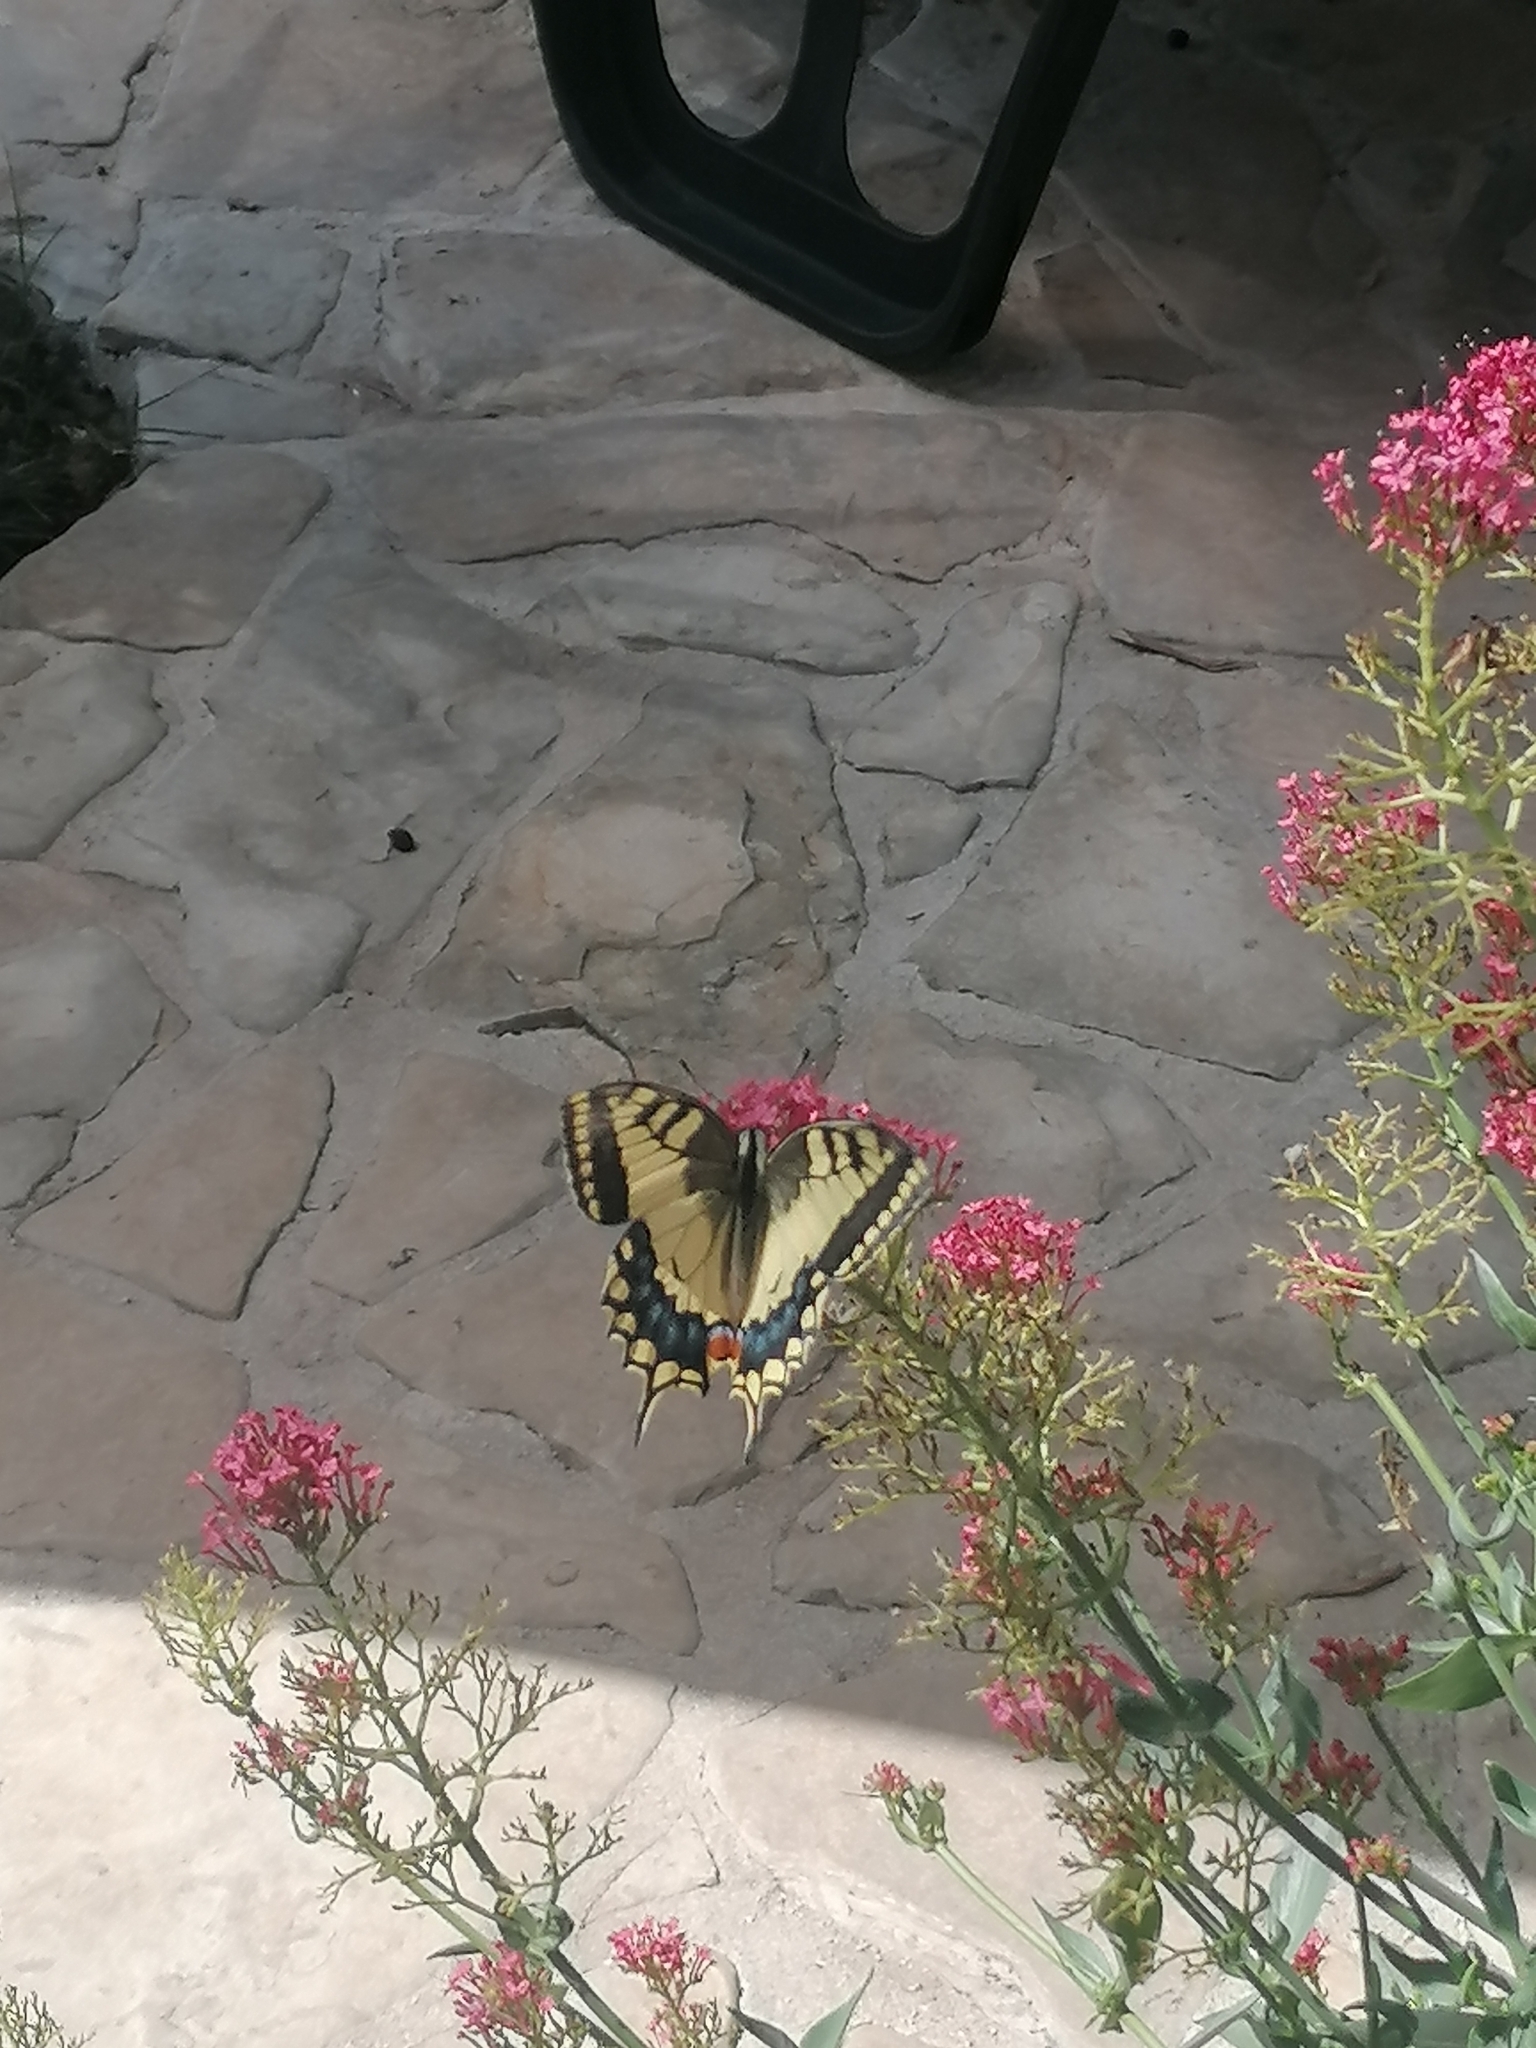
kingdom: Animalia
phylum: Arthropoda
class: Insecta
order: Lepidoptera
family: Papilionidae
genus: Papilio
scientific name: Papilio machaon
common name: Swallowtail
